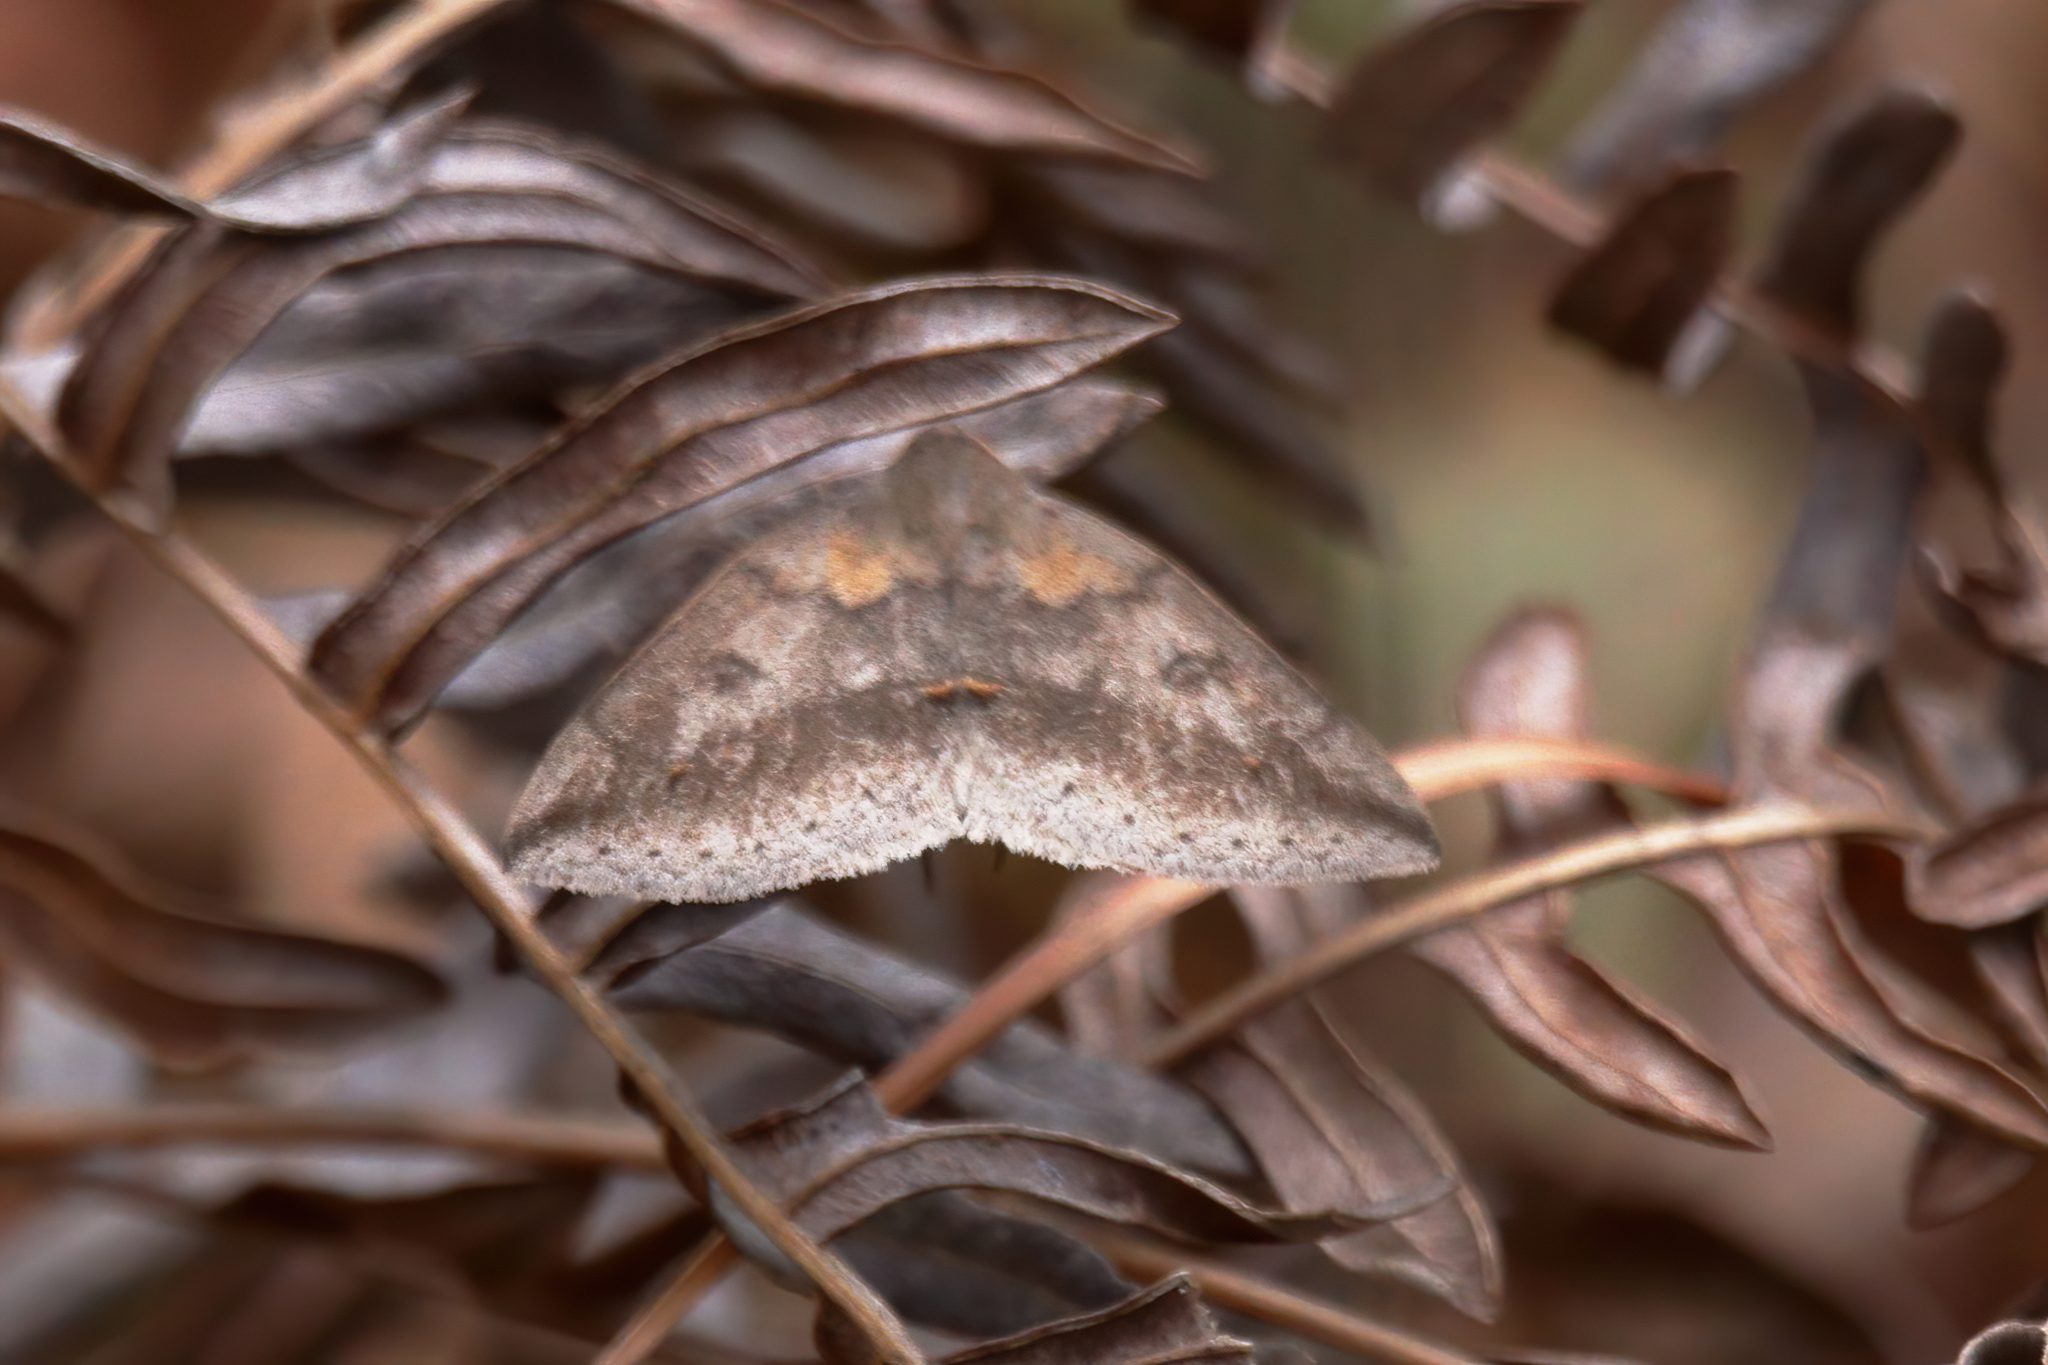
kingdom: Animalia
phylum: Arthropoda
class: Insecta
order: Lepidoptera
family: Erebidae
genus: Argyrostrotis
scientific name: Argyrostrotis flavistriaria
